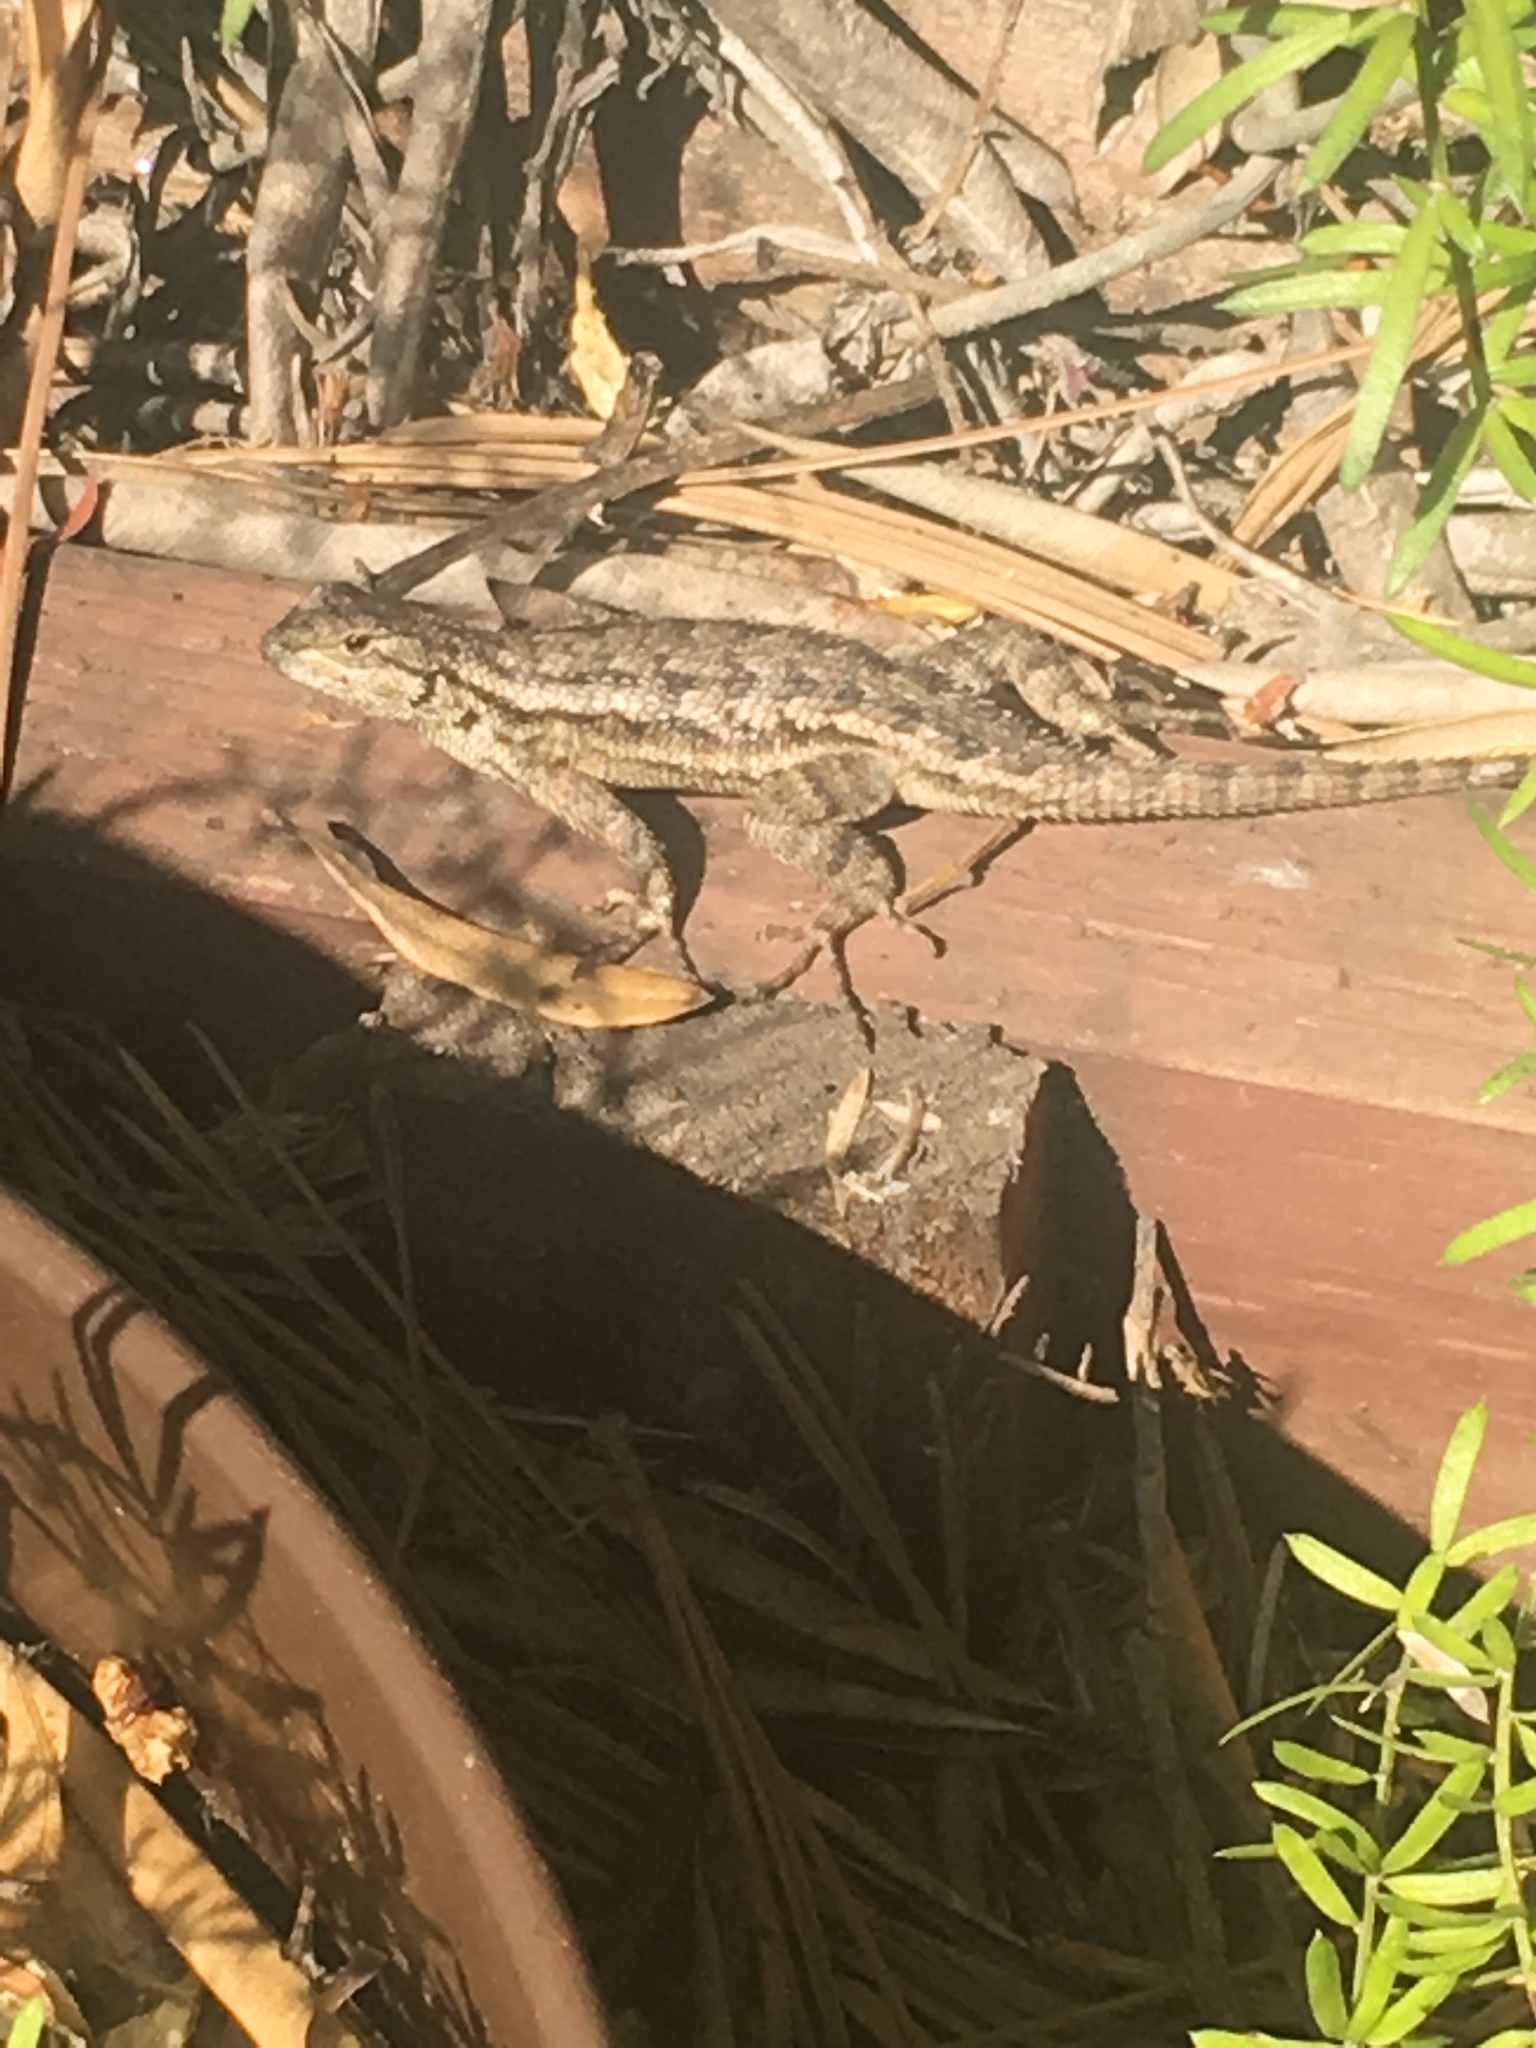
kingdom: Animalia
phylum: Chordata
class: Squamata
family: Phrynosomatidae
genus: Sceloporus
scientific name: Sceloporus occidentalis
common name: Western fence lizard
